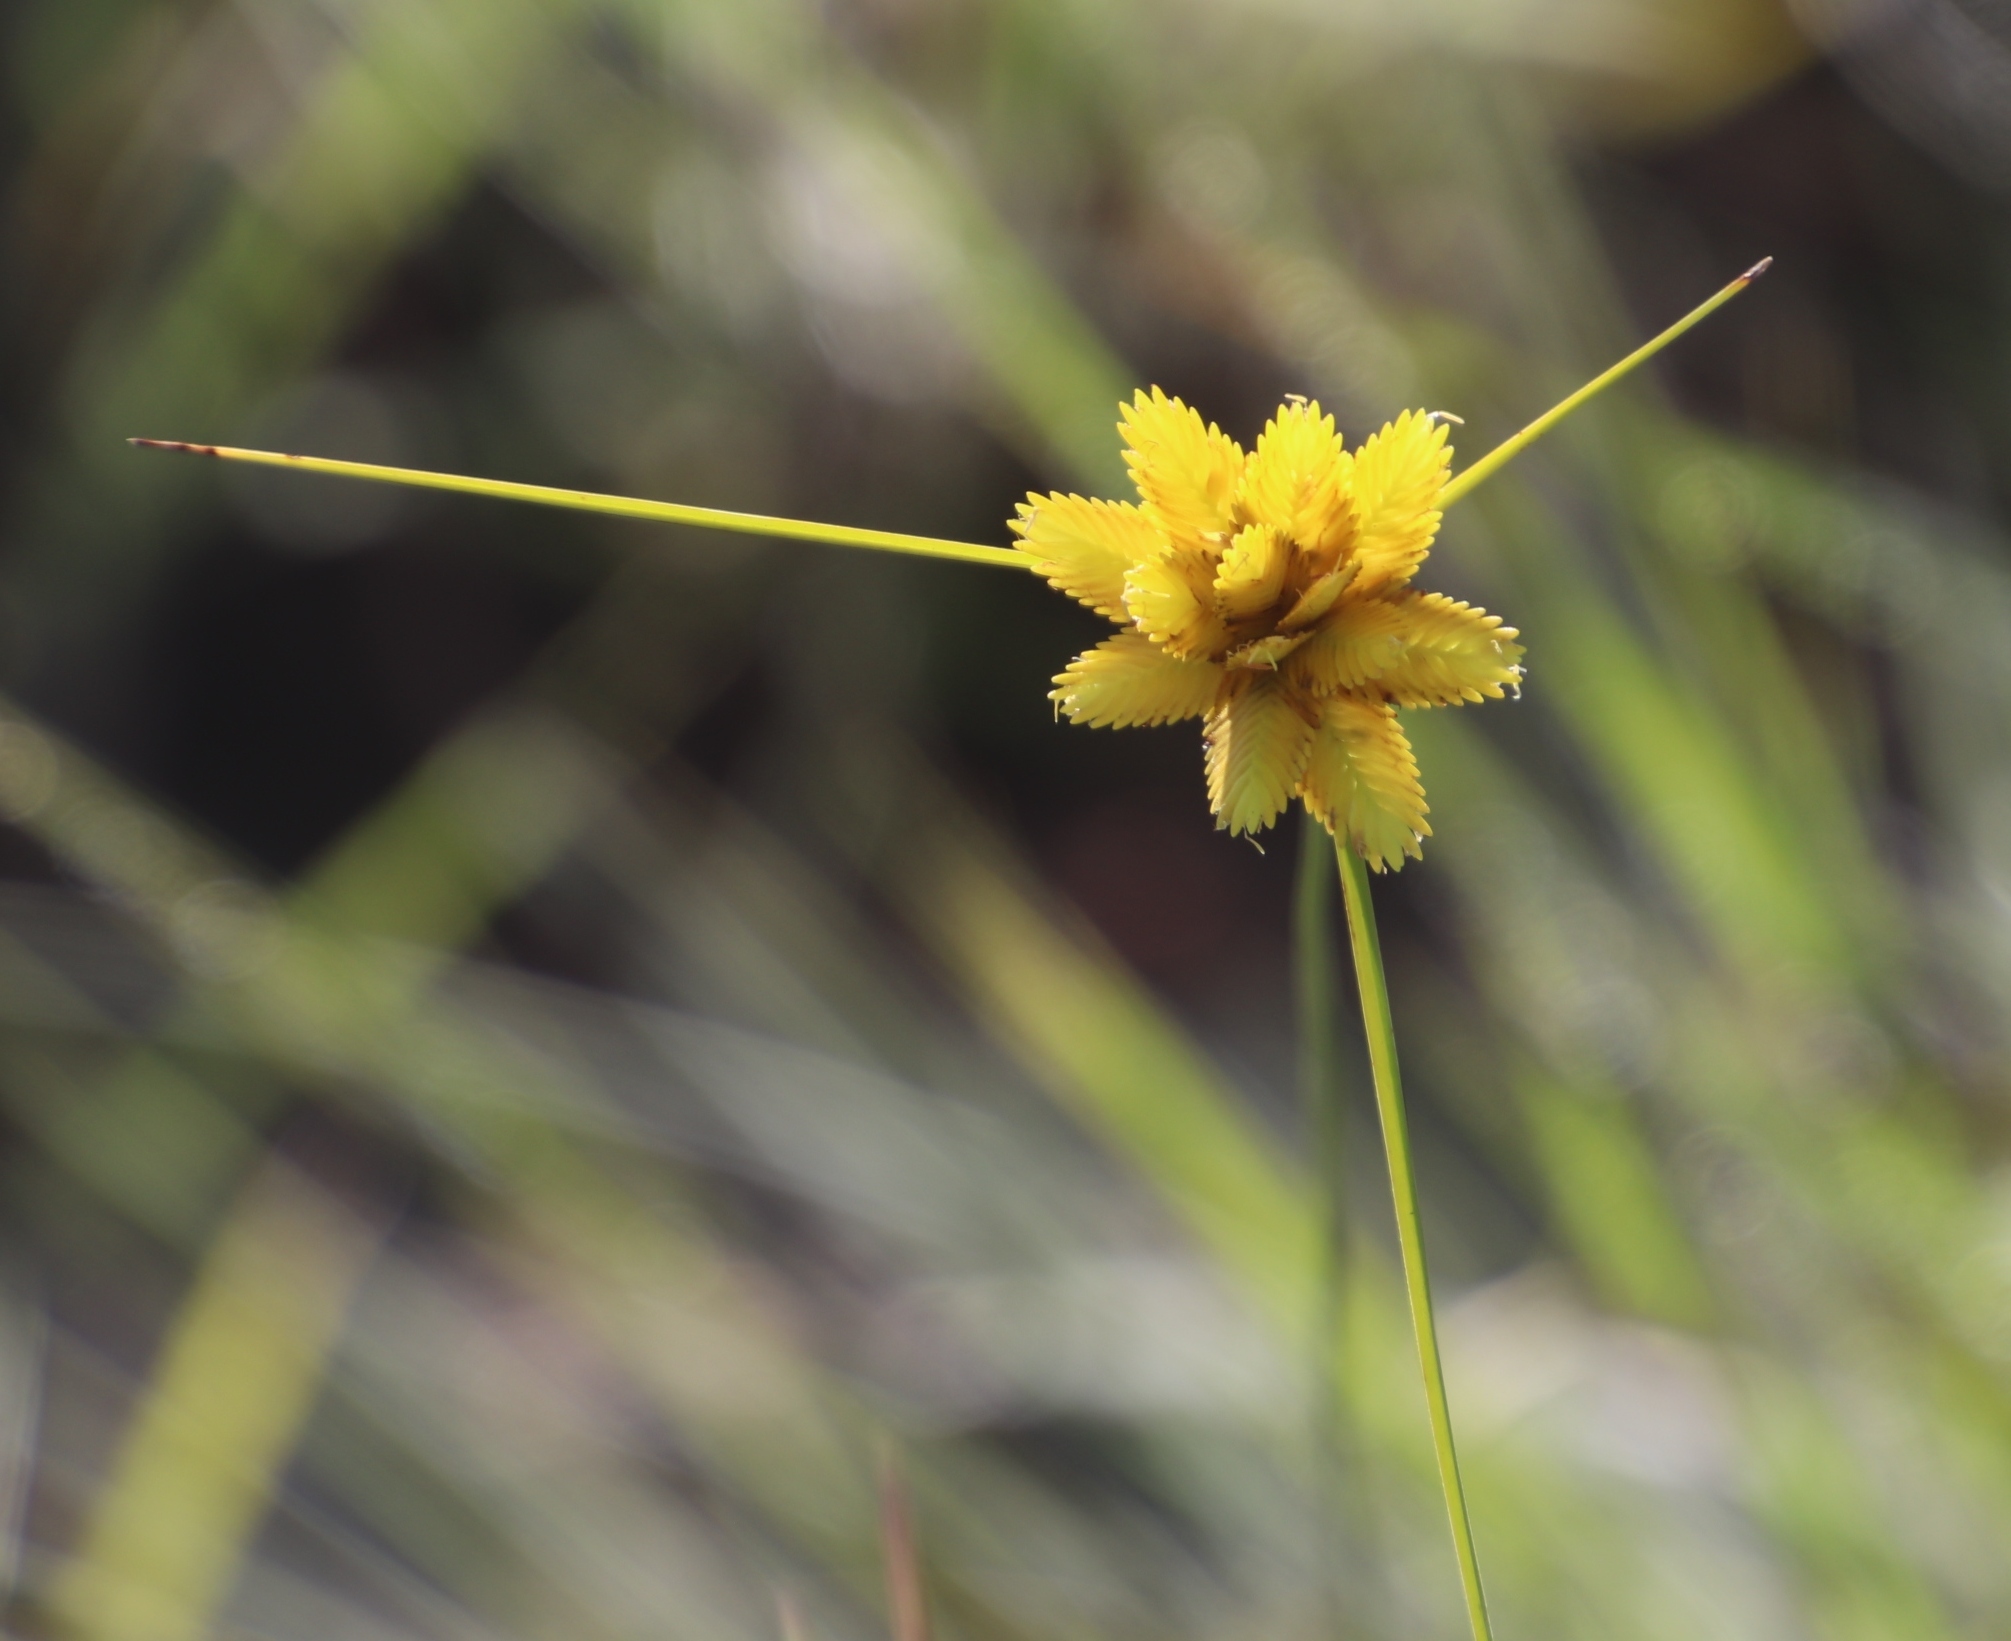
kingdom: Plantae
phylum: Tracheophyta
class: Liliopsida
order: Poales
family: Cyperaceae
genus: Cyperus
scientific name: Cyperus sphaerocephalus
